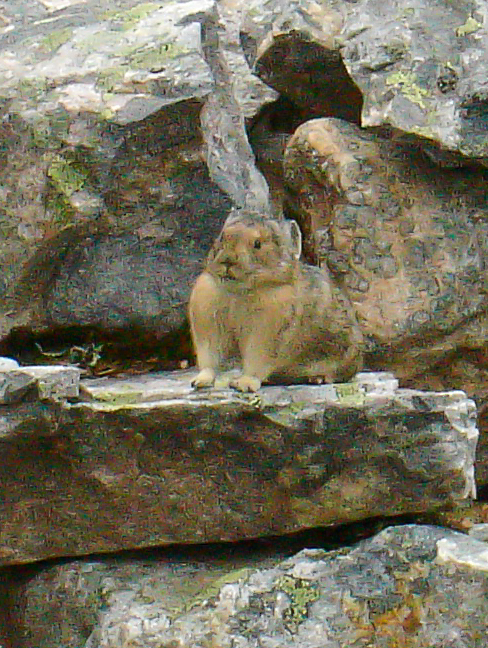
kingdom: Animalia
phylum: Chordata
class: Mammalia
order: Lagomorpha
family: Ochotonidae
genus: Ochotona
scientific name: Ochotona princeps
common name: American pika
